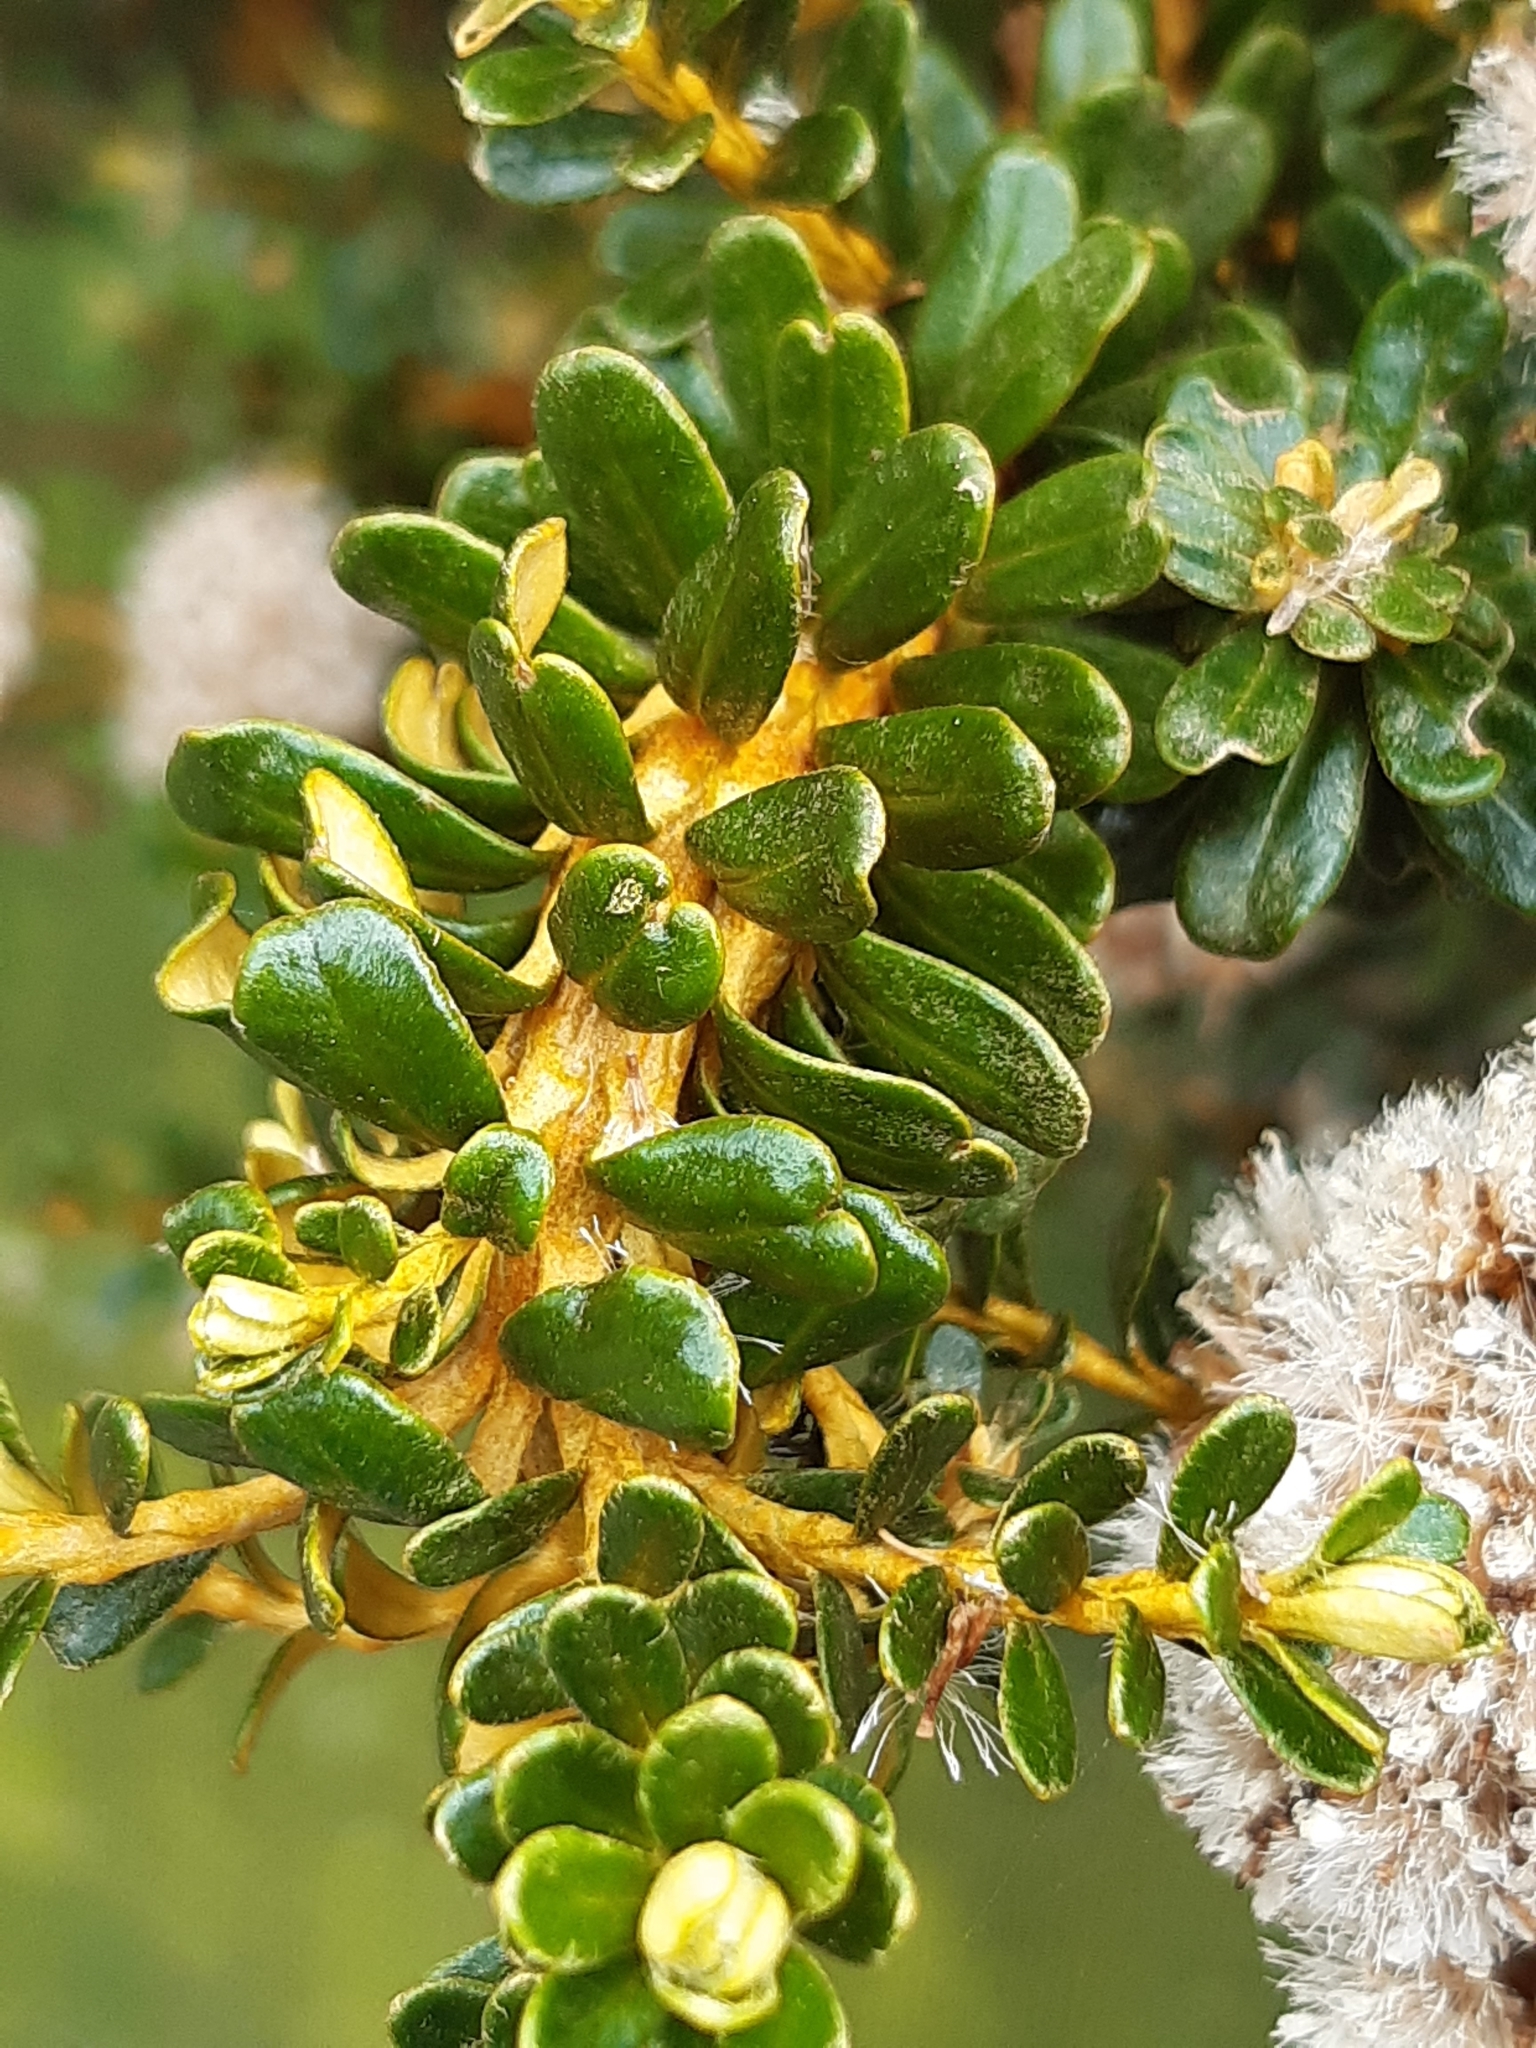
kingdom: Plantae
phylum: Tracheophyta
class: Magnoliopsida
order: Asterales
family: Asteraceae
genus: Ozothamnus
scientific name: Ozothamnus leptophyllus
